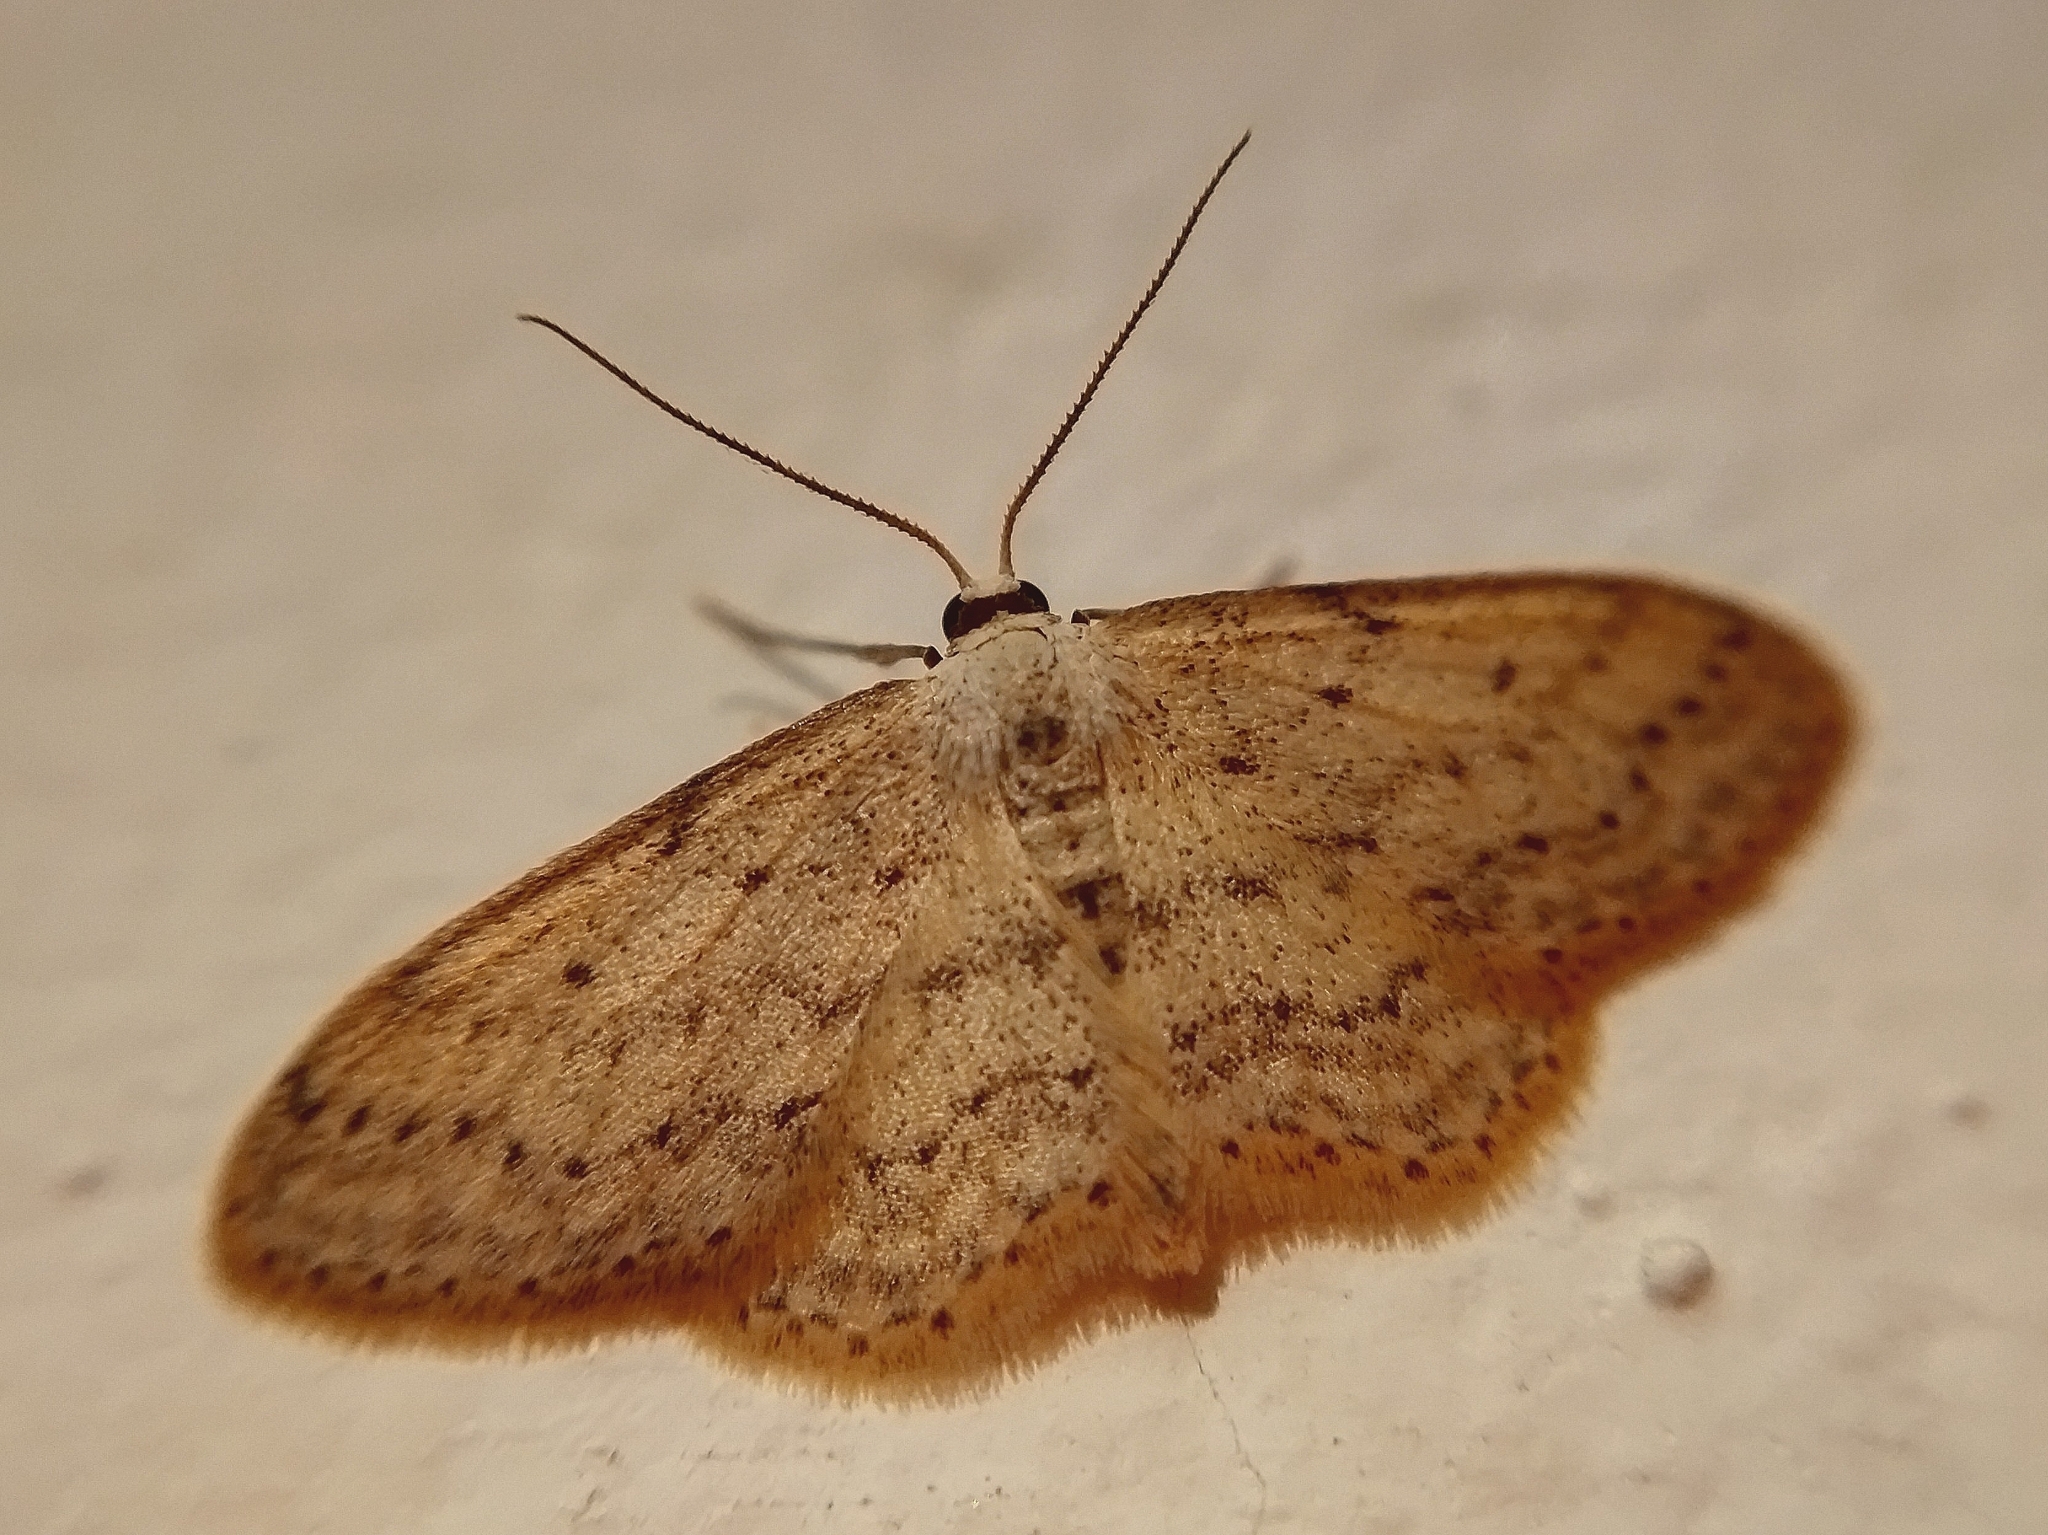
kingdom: Animalia
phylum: Arthropoda
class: Insecta
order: Lepidoptera
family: Geometridae
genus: Idaea
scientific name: Idaea seriata
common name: Small dusty wave
